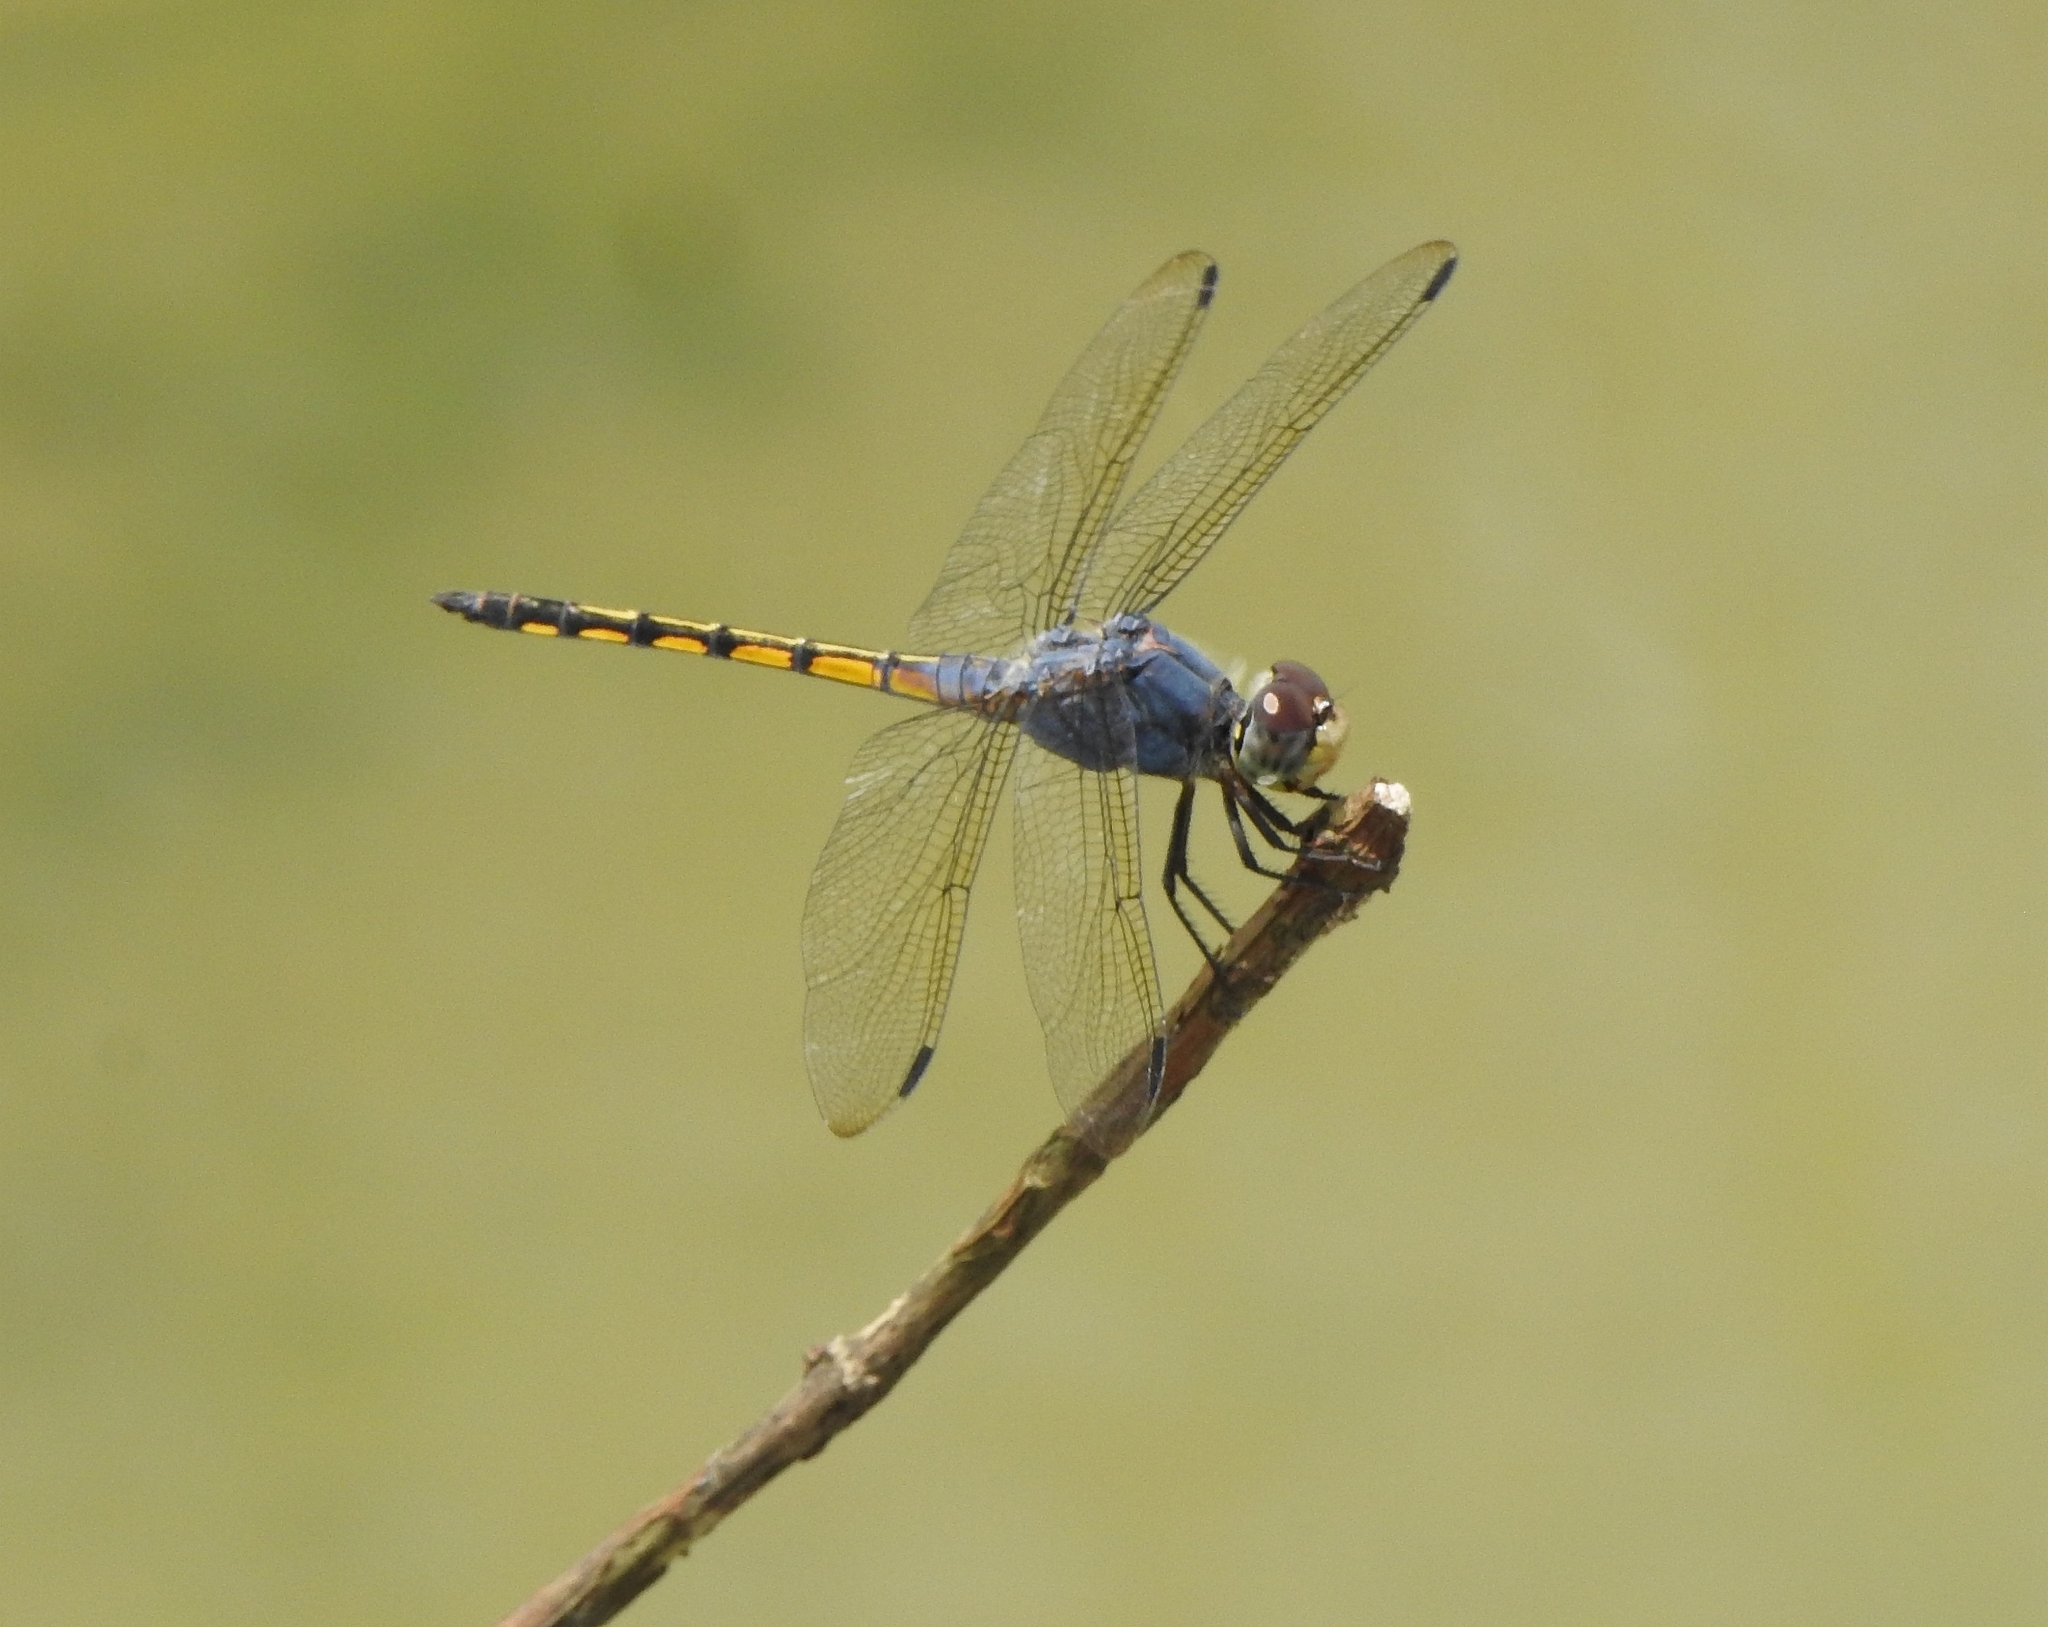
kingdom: Animalia
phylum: Arthropoda
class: Insecta
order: Odonata
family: Libellulidae
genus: Potamarcha
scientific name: Potamarcha congener
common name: Blue chaser
